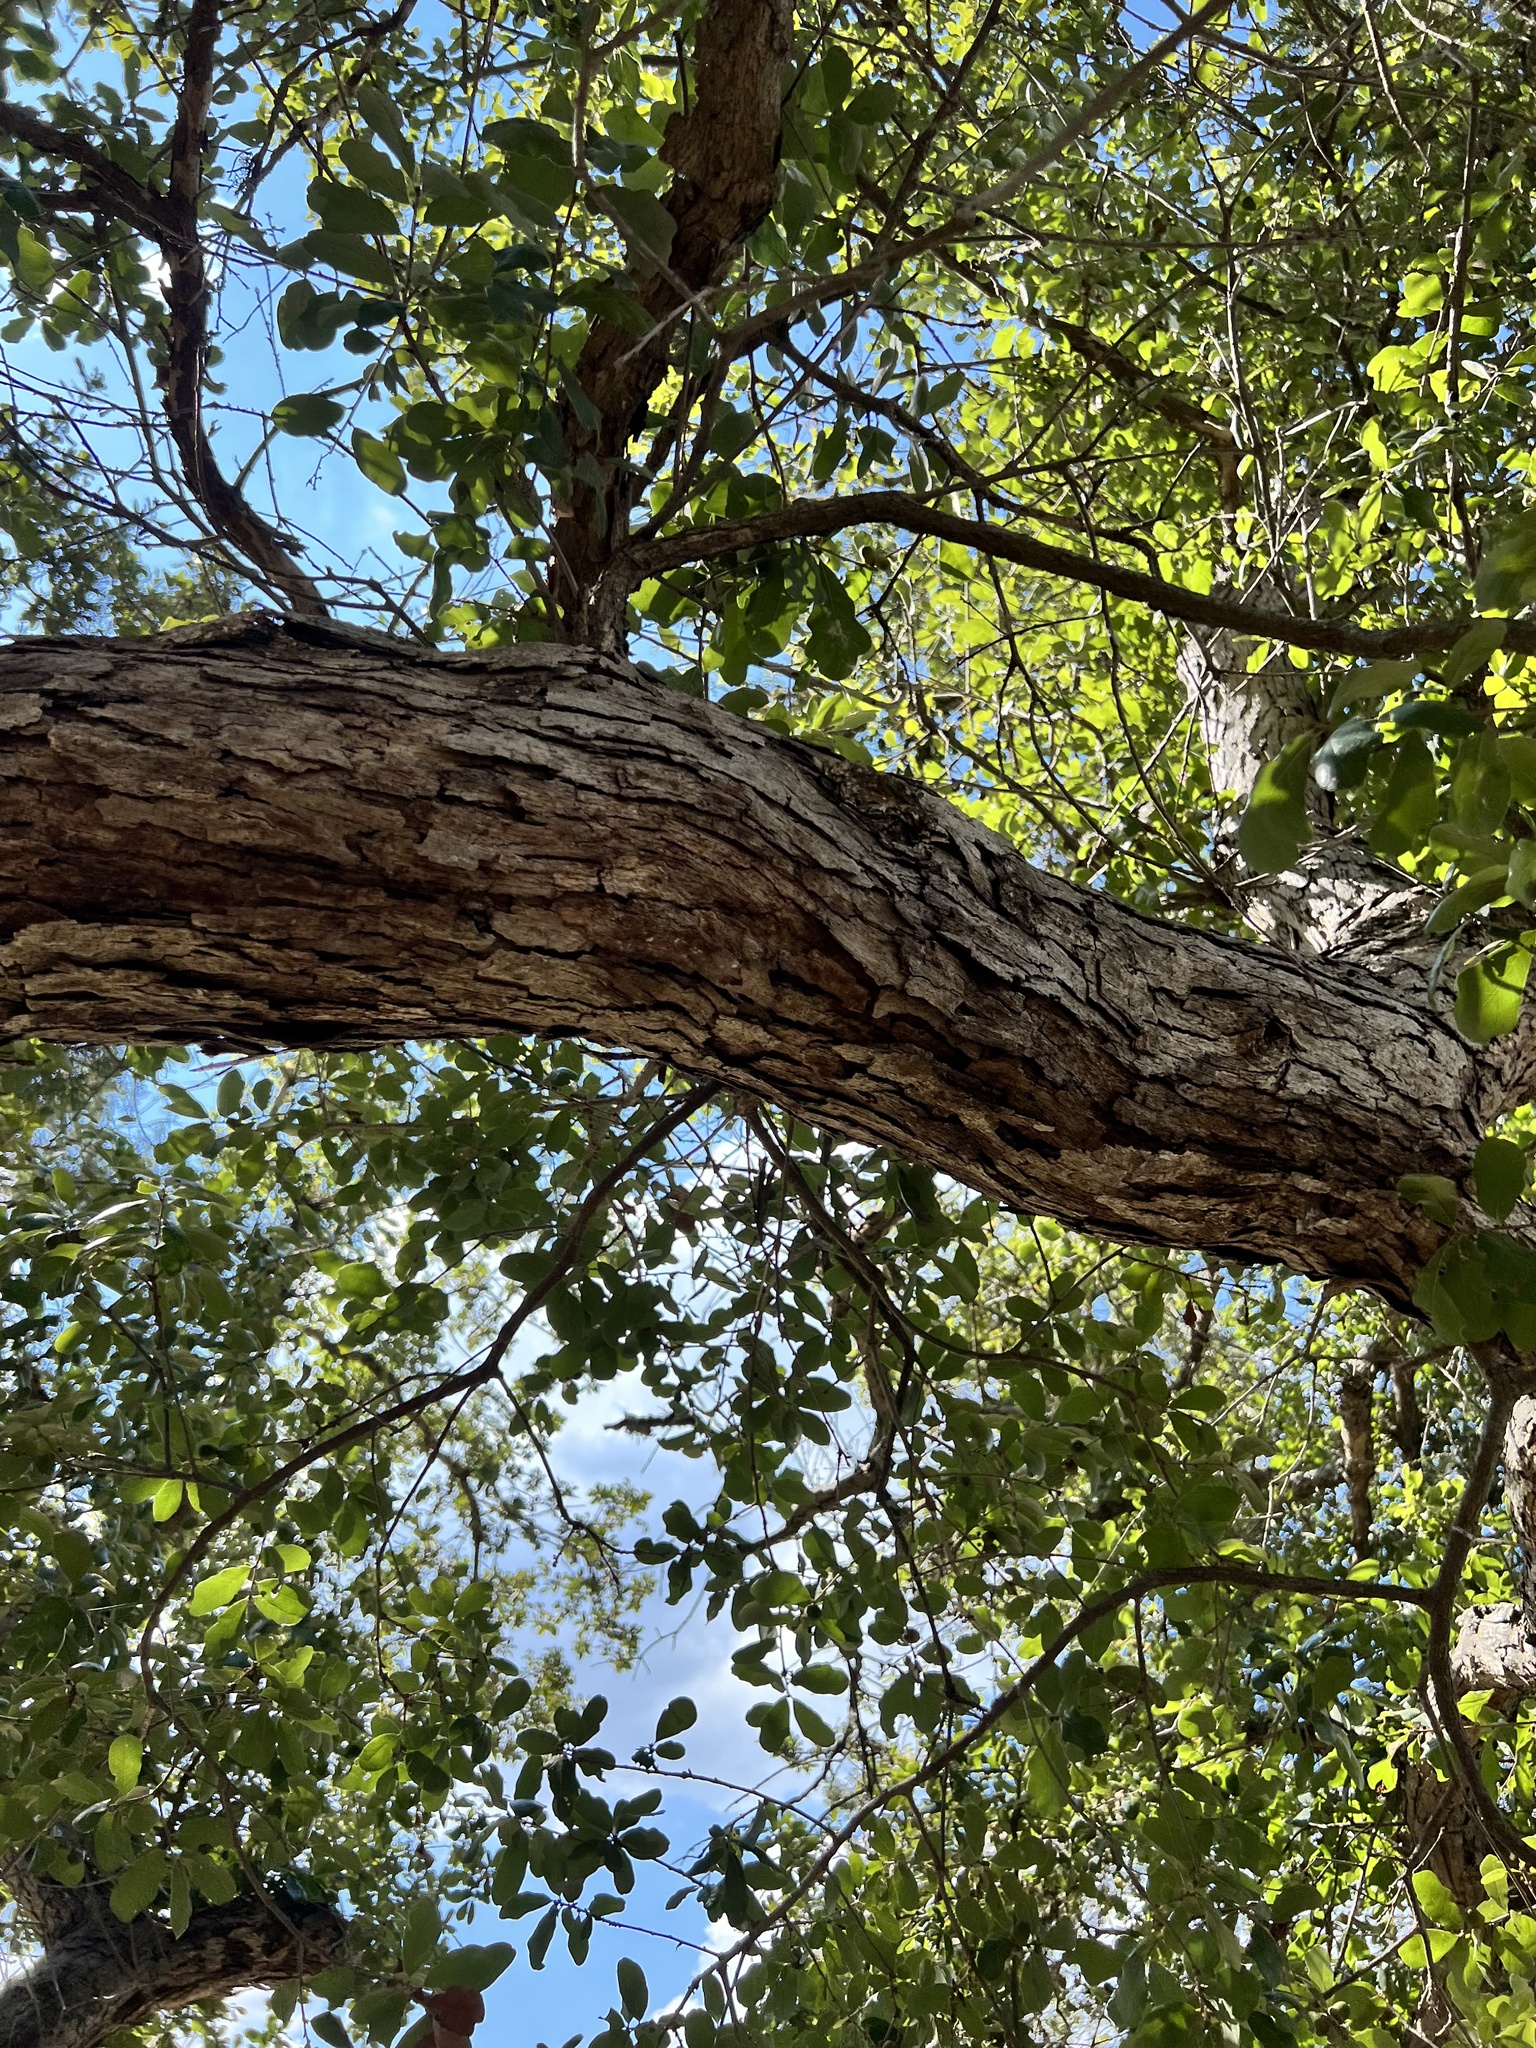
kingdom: Plantae
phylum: Tracheophyta
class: Magnoliopsida
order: Fagales
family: Fagaceae
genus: Quercus
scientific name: Quercus sinuata
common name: Durand oak
